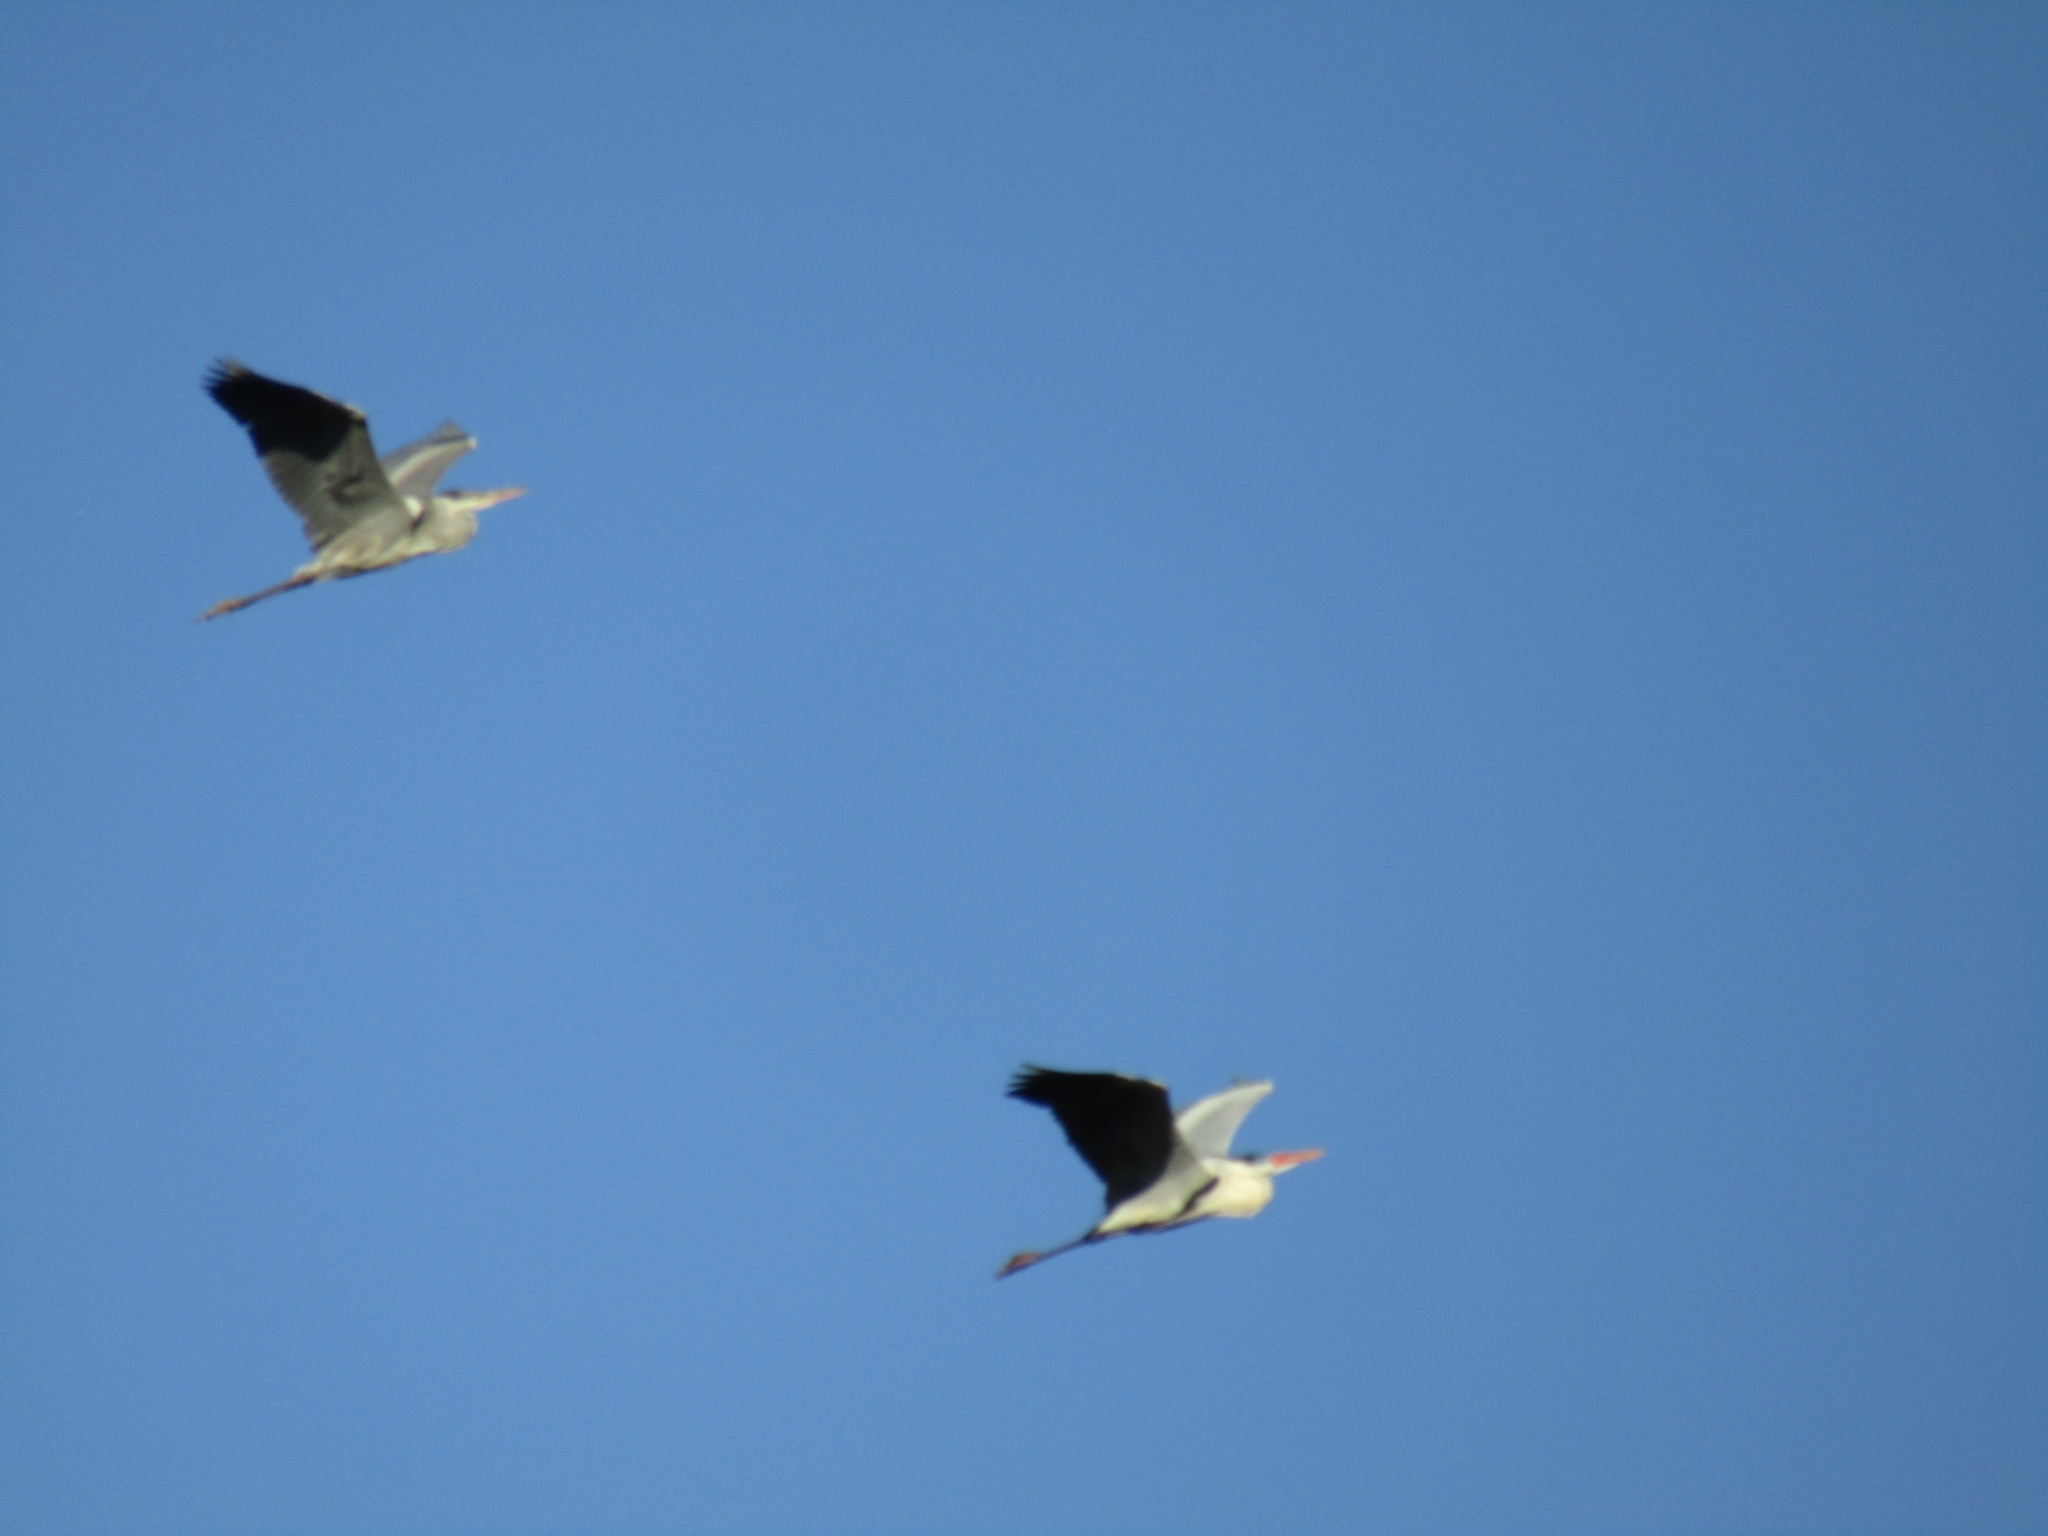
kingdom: Animalia
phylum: Chordata
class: Aves
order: Pelecaniformes
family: Ardeidae
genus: Ardea
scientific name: Ardea cocoi
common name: Cocoi heron
